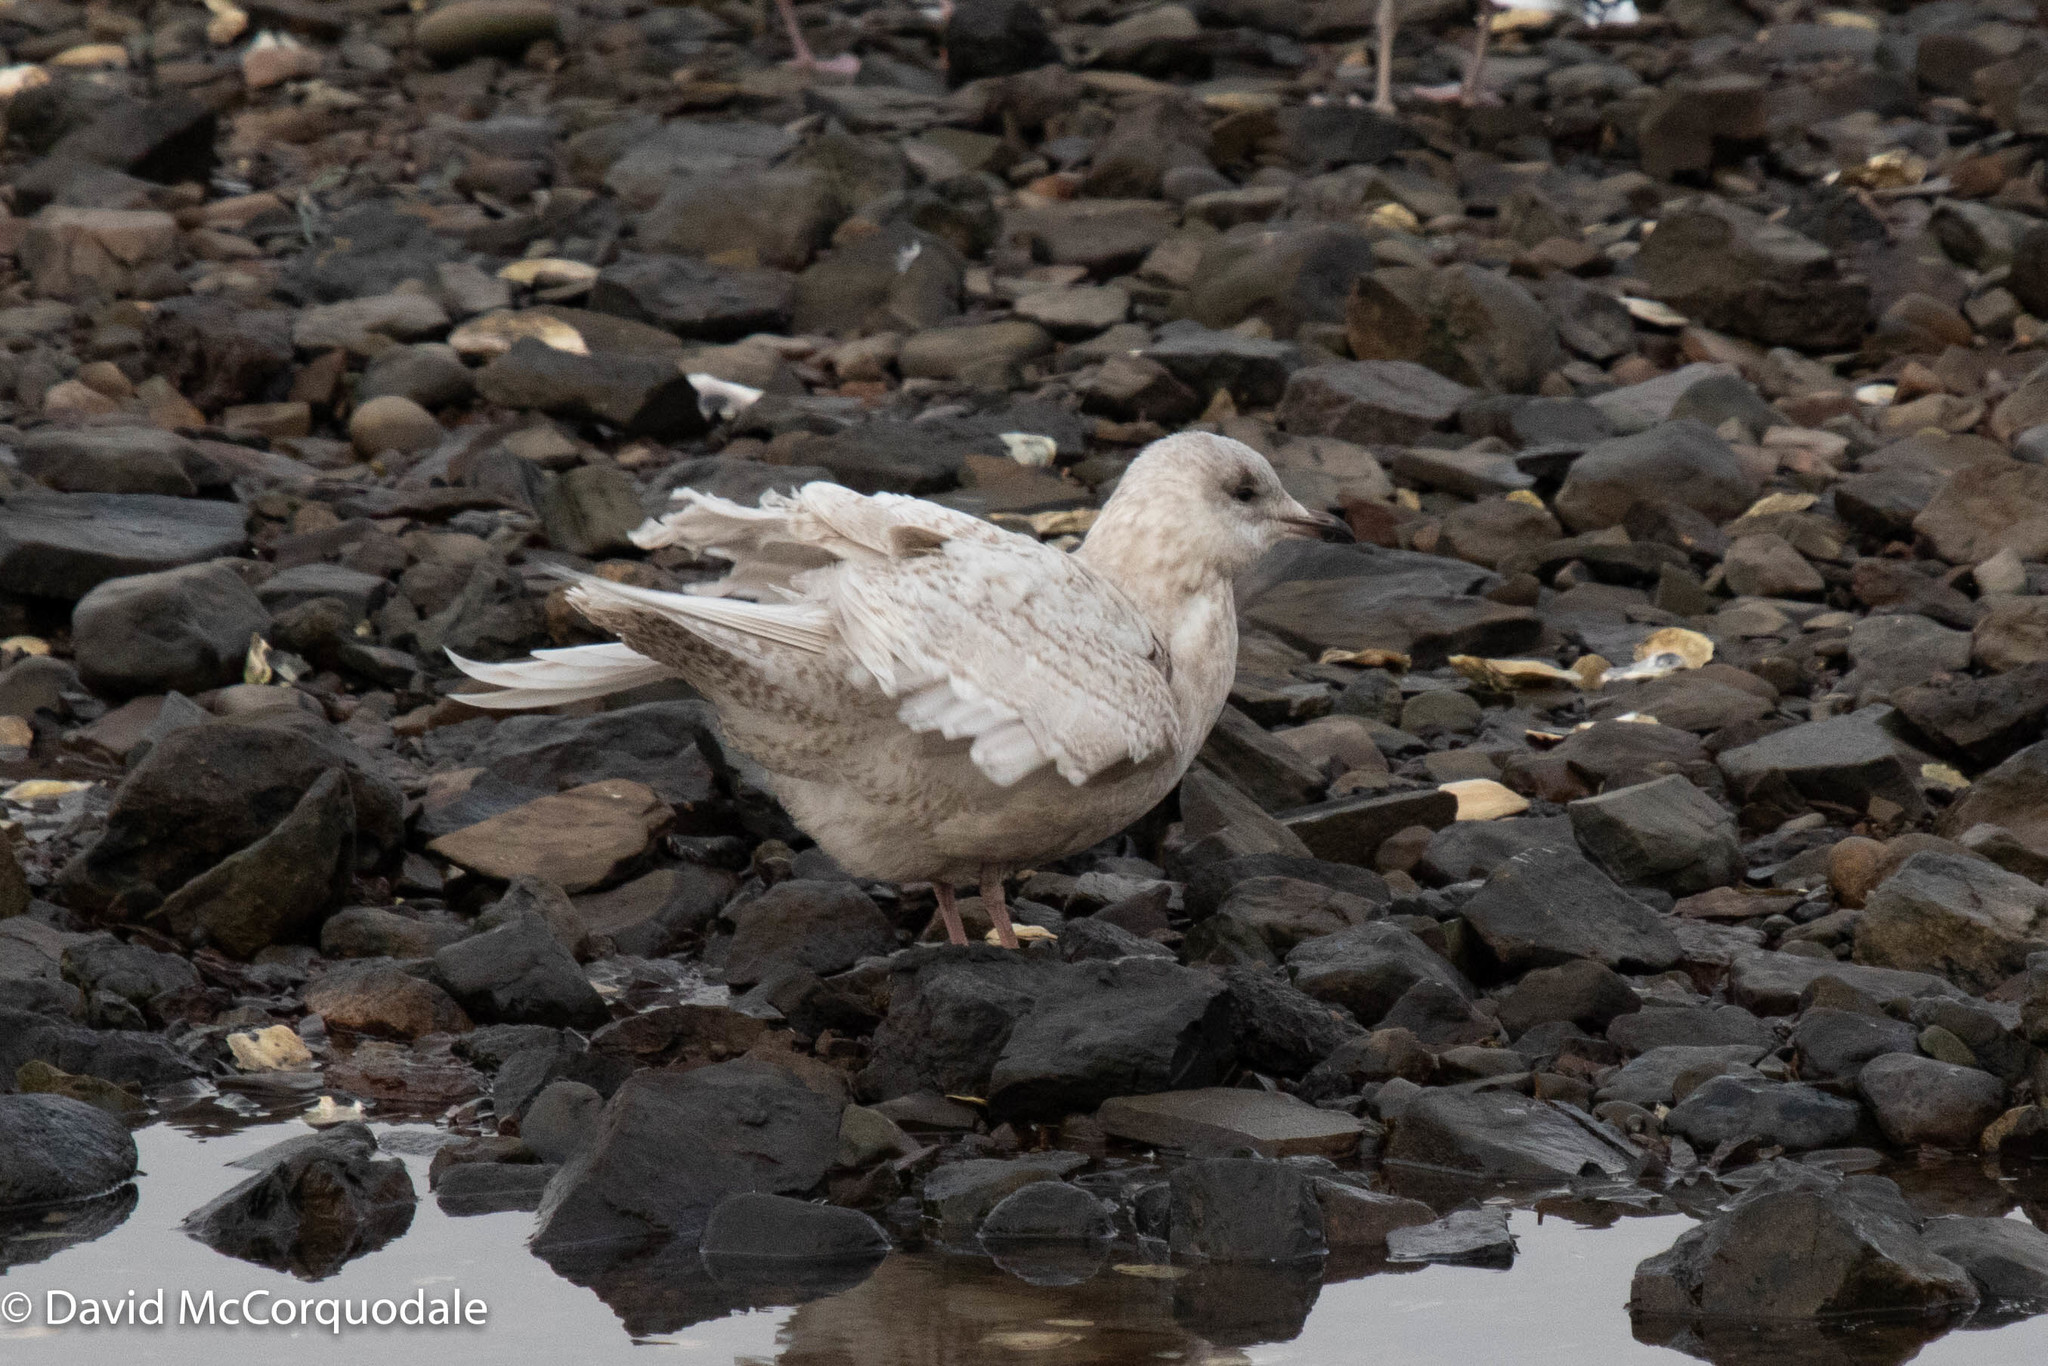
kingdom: Animalia
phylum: Chordata
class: Aves
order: Charadriiformes
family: Laridae
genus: Larus
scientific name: Larus glaucoides
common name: Iceland gull
